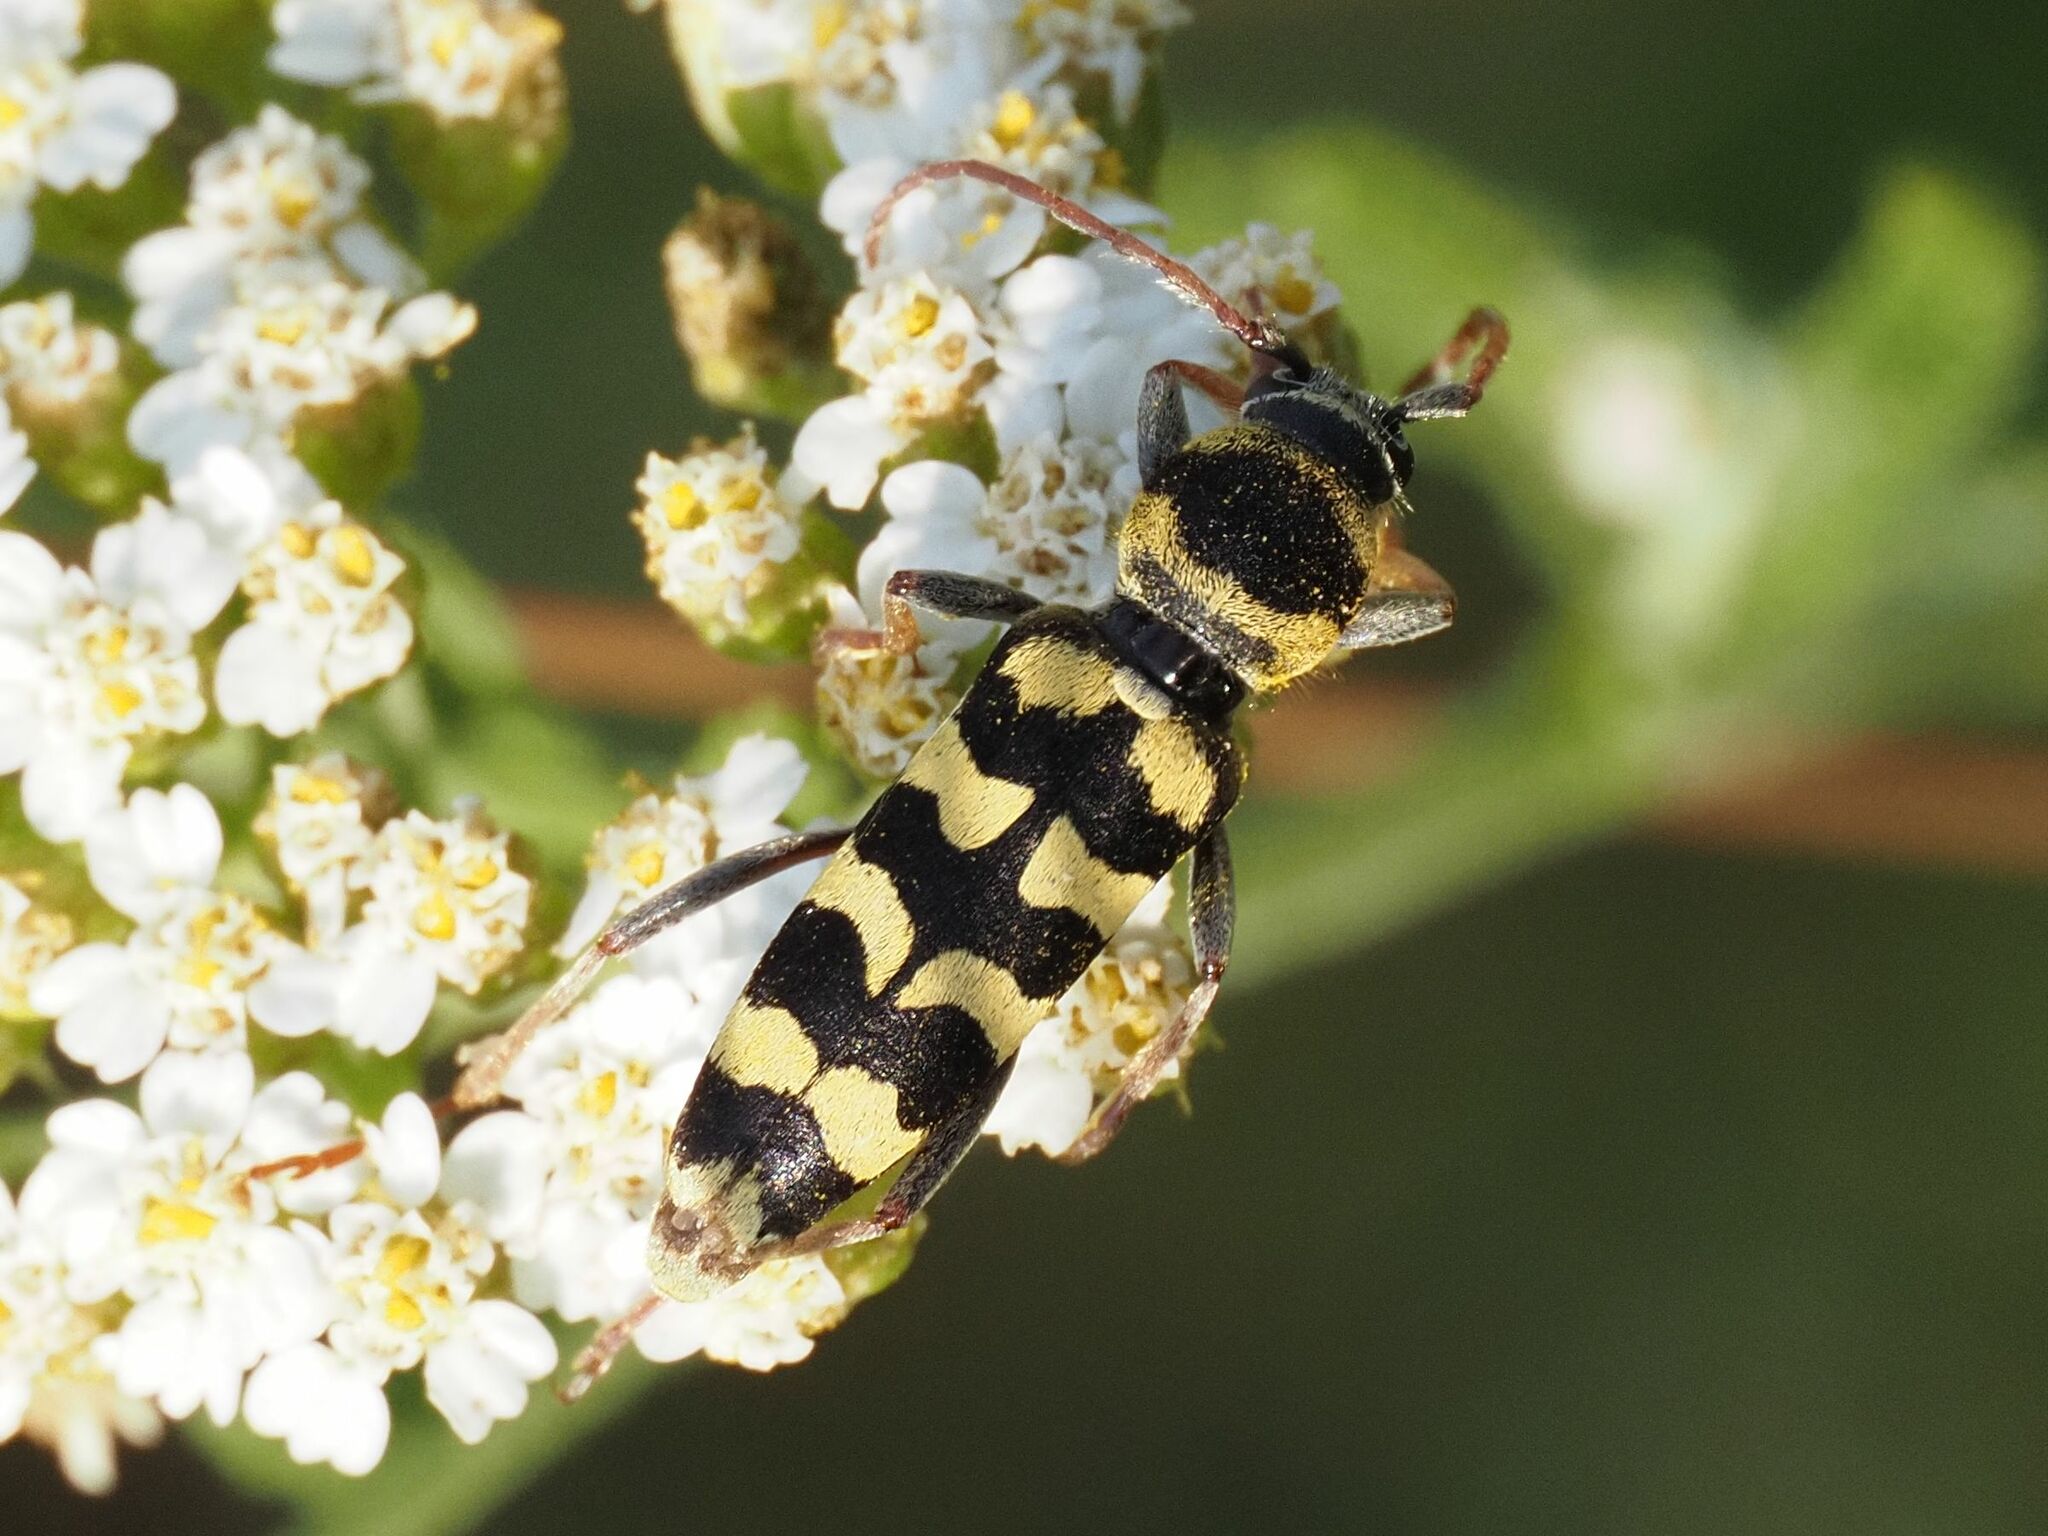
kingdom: Animalia
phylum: Arthropoda
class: Insecta
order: Coleoptera
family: Cerambycidae
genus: Plagionotus
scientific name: Plagionotus floralis
